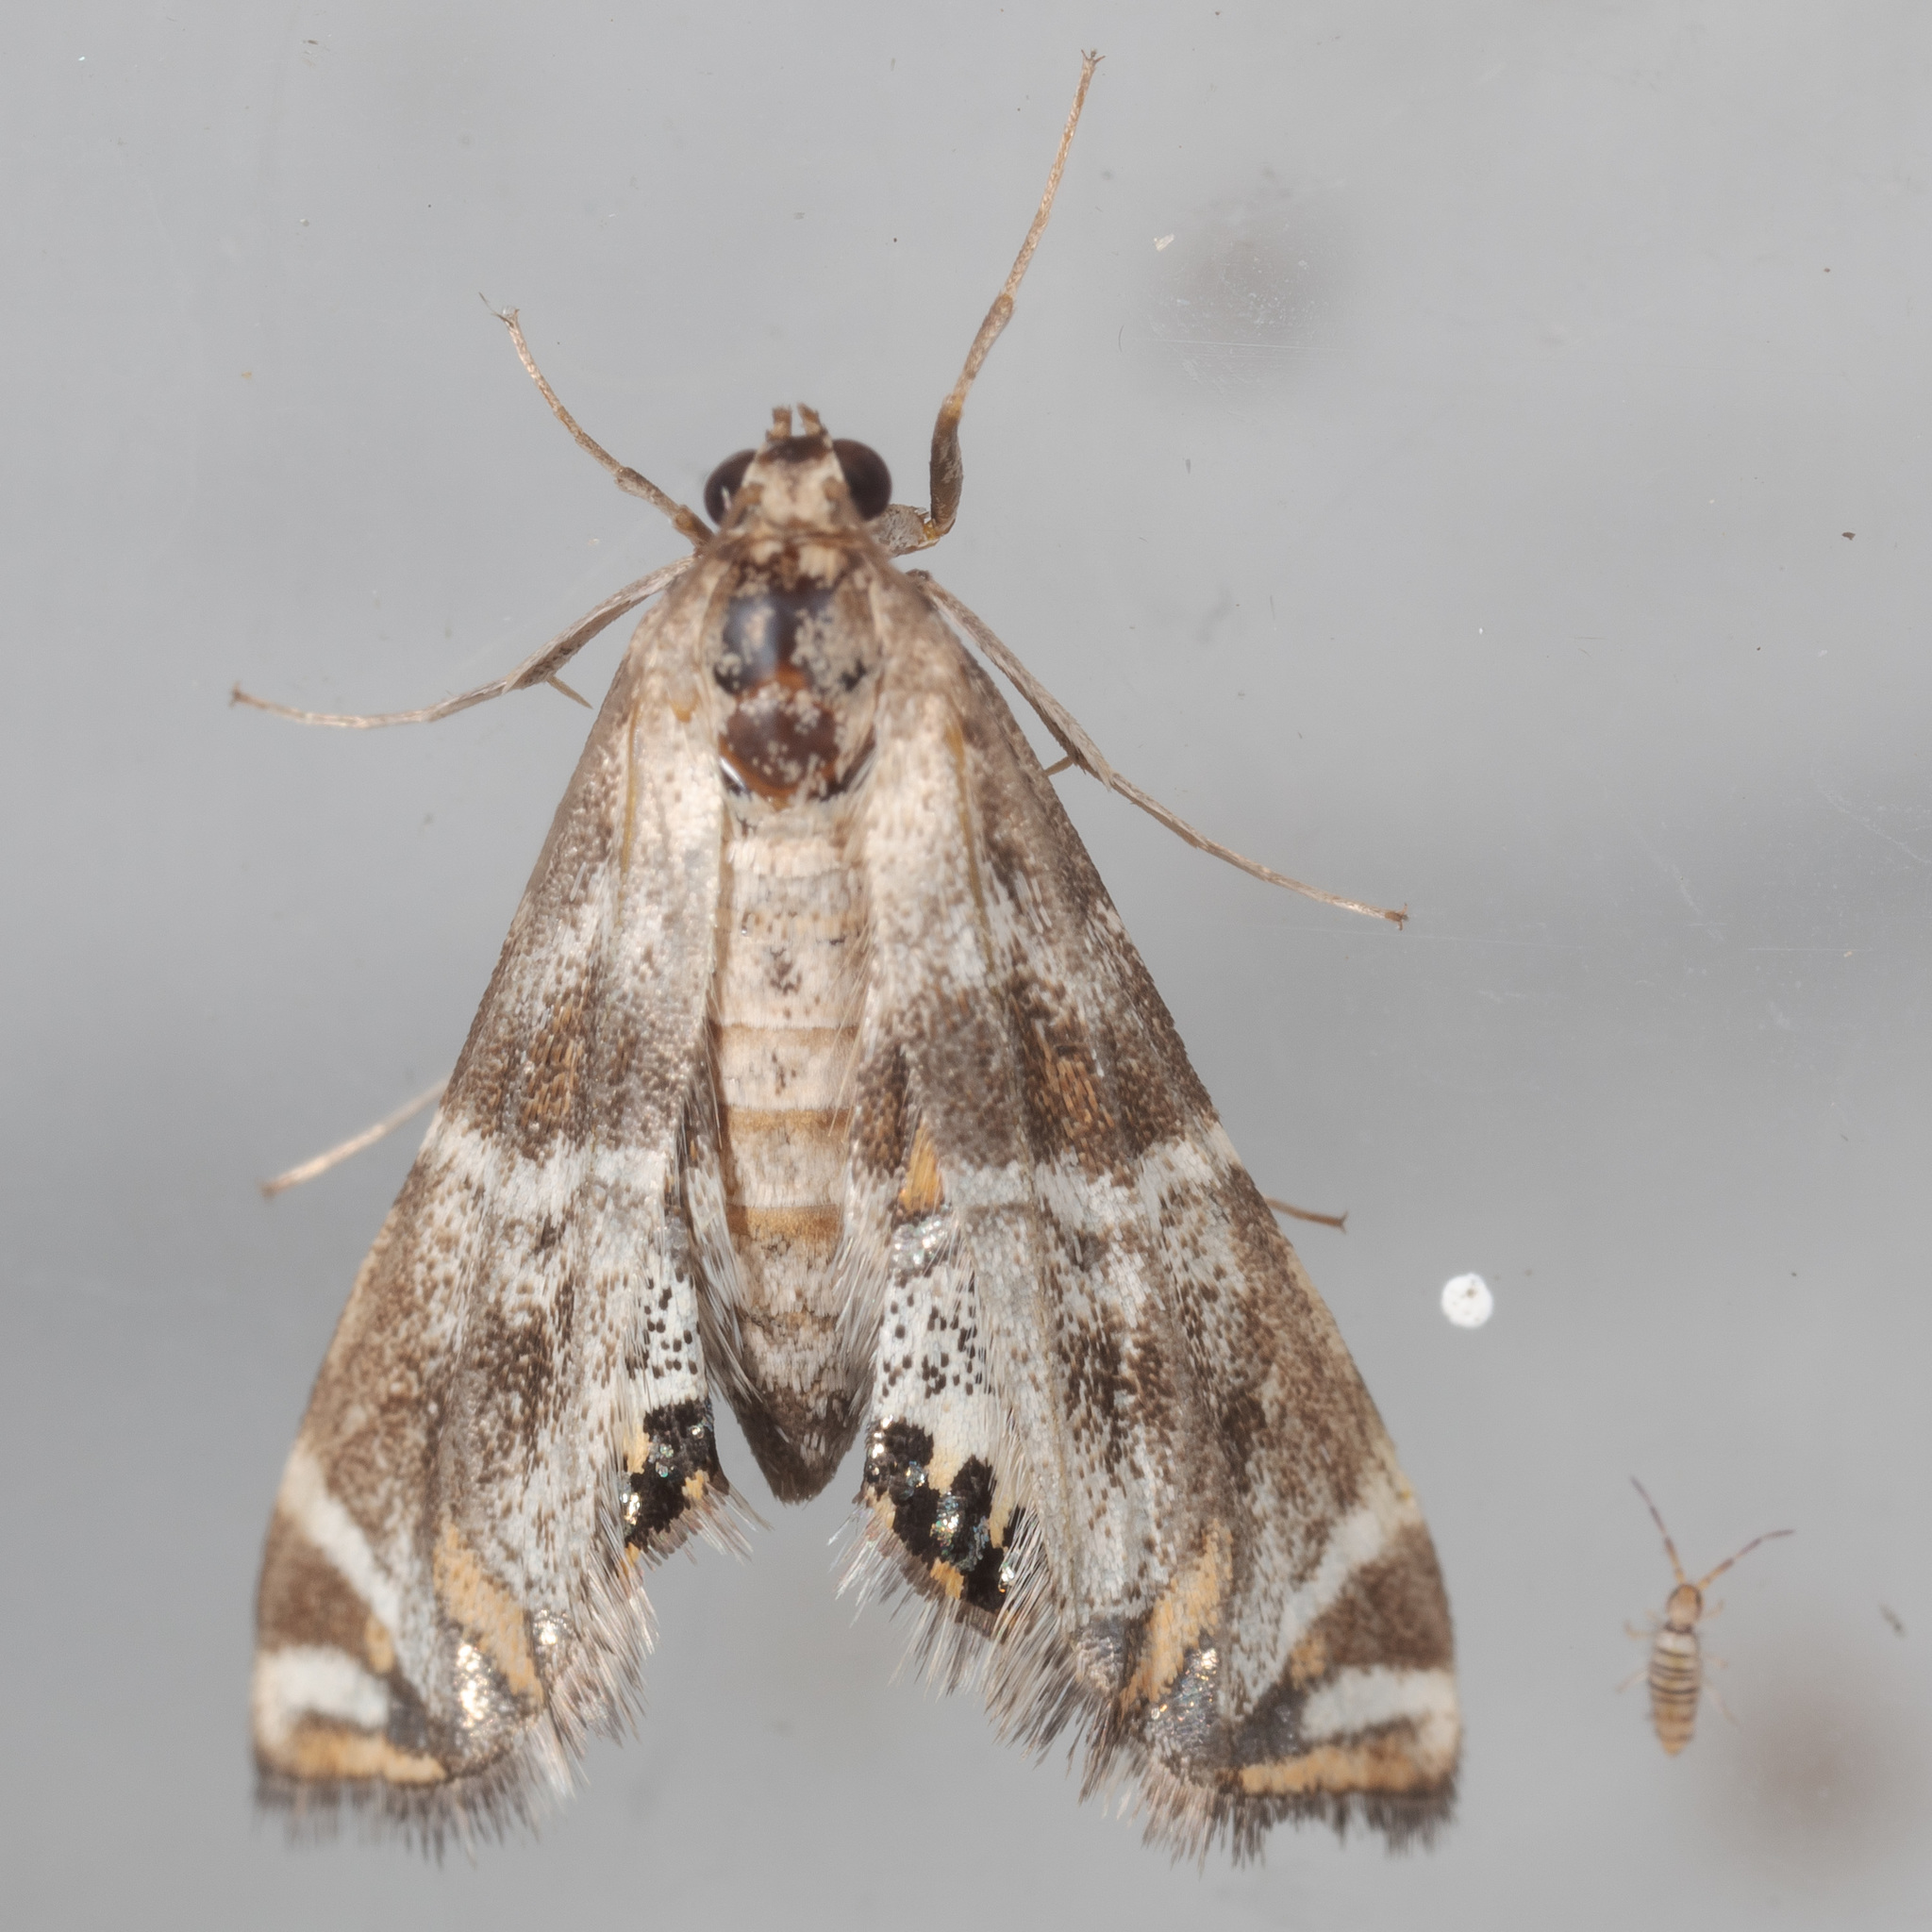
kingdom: Animalia
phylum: Arthropoda
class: Insecta
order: Lepidoptera
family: Crambidae
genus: Petrophila
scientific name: Petrophila jaliscalis
